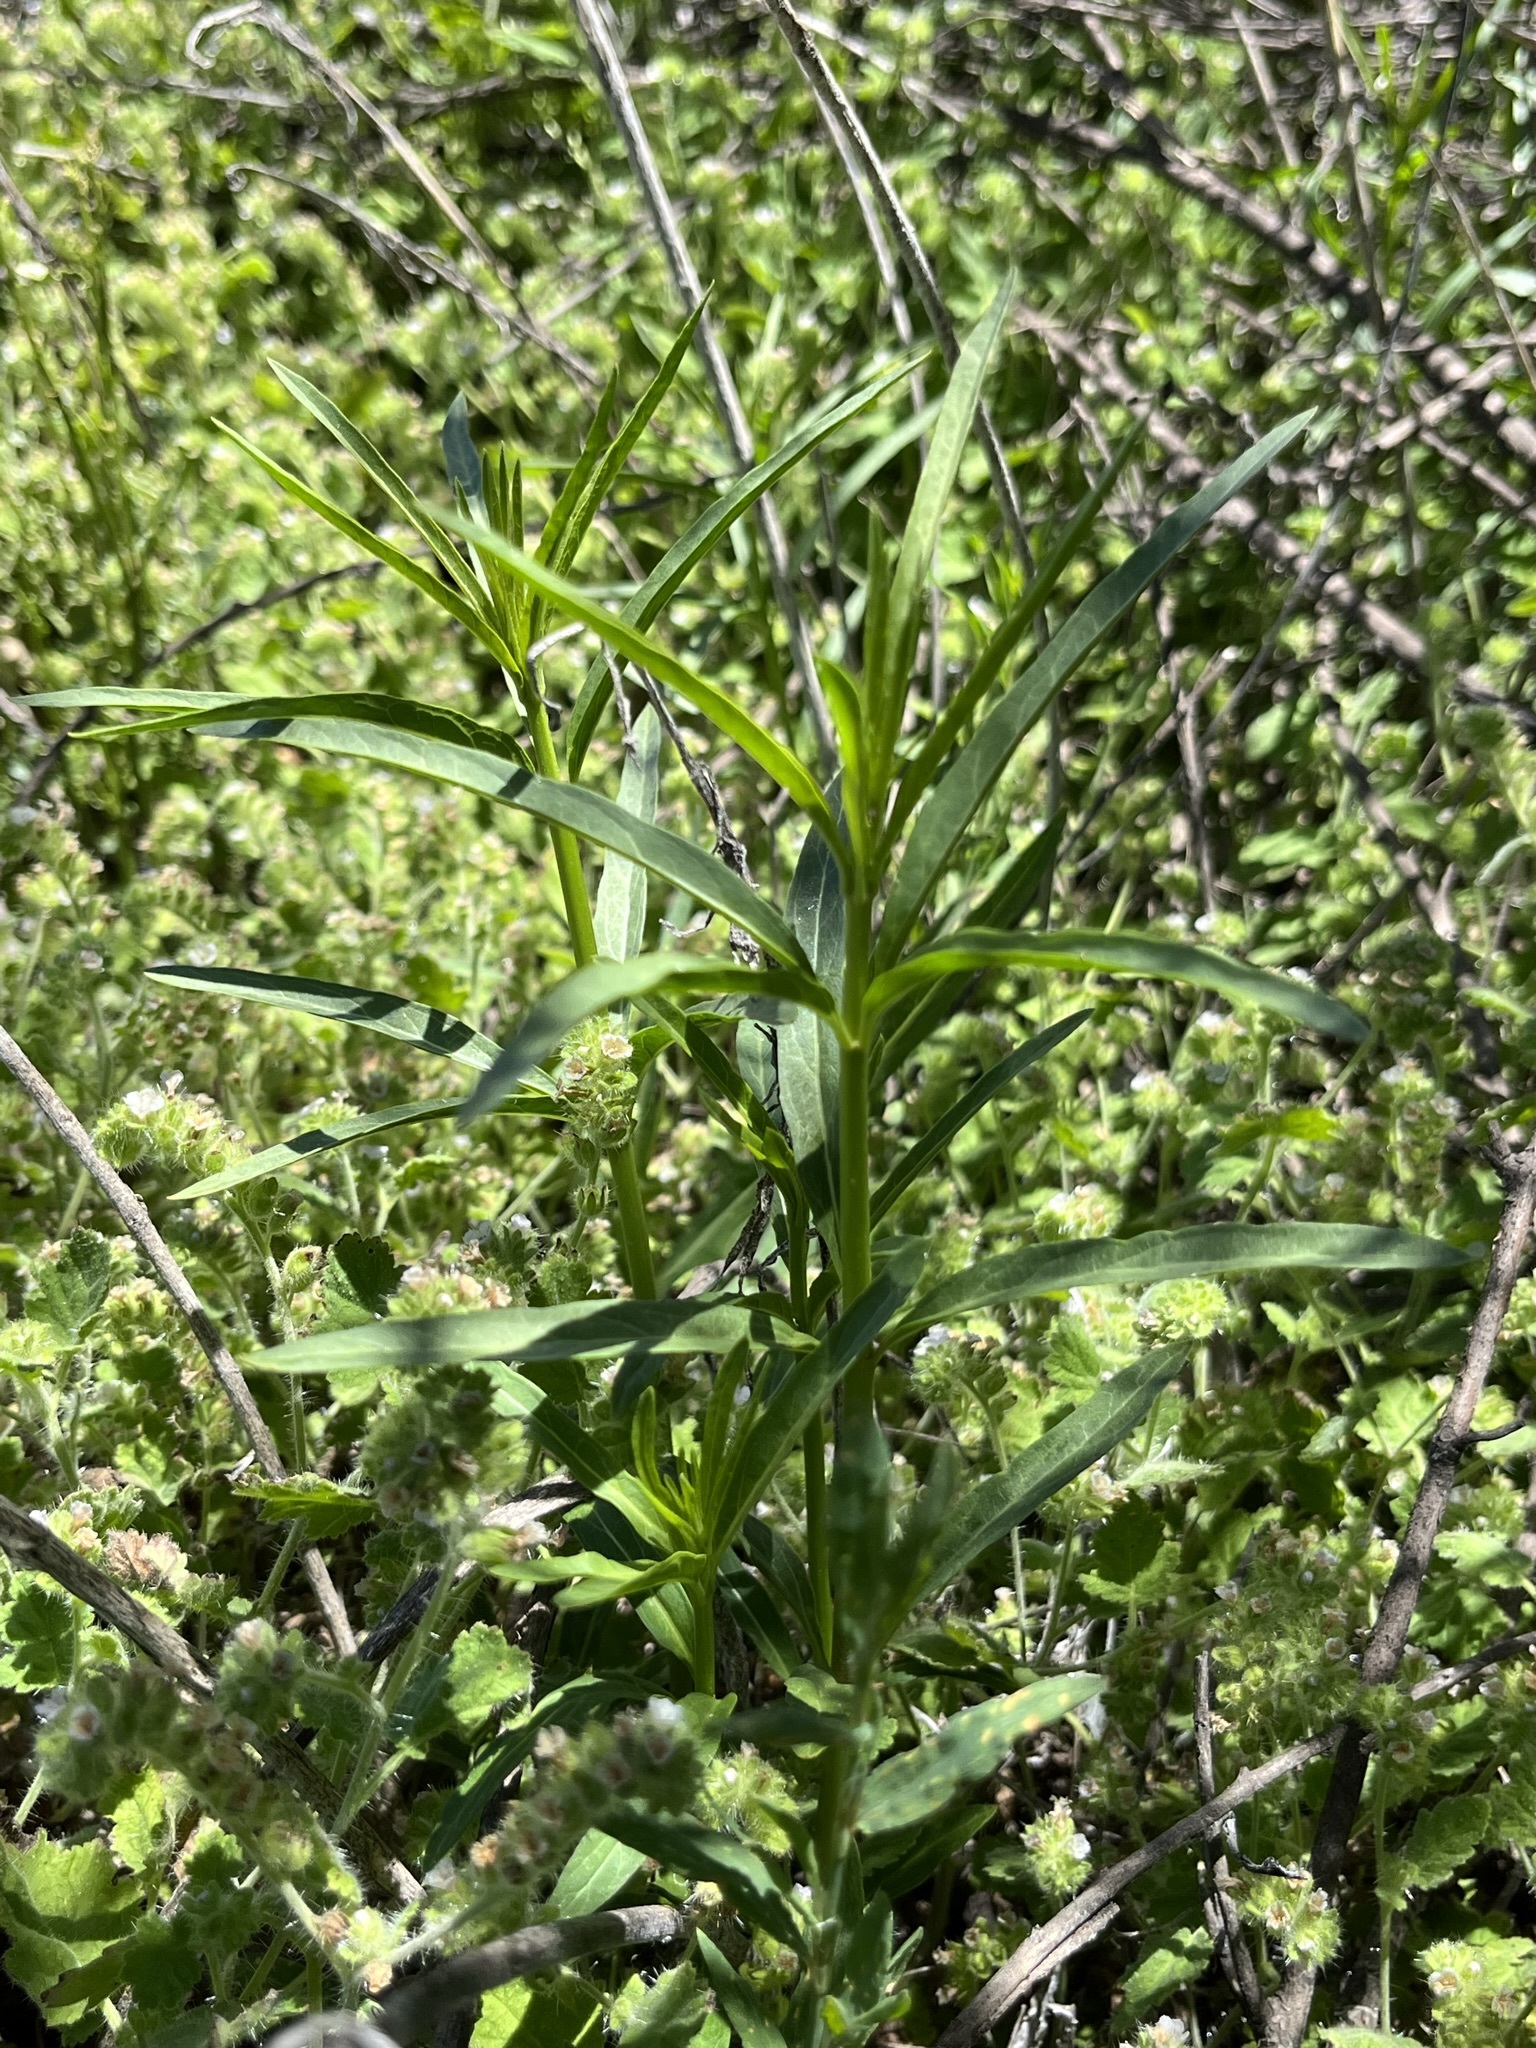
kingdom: Plantae
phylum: Tracheophyta
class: Magnoliopsida
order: Gentianales
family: Apocynaceae
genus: Asclepias
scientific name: Asclepias fascicularis
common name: Mexican milkweed
